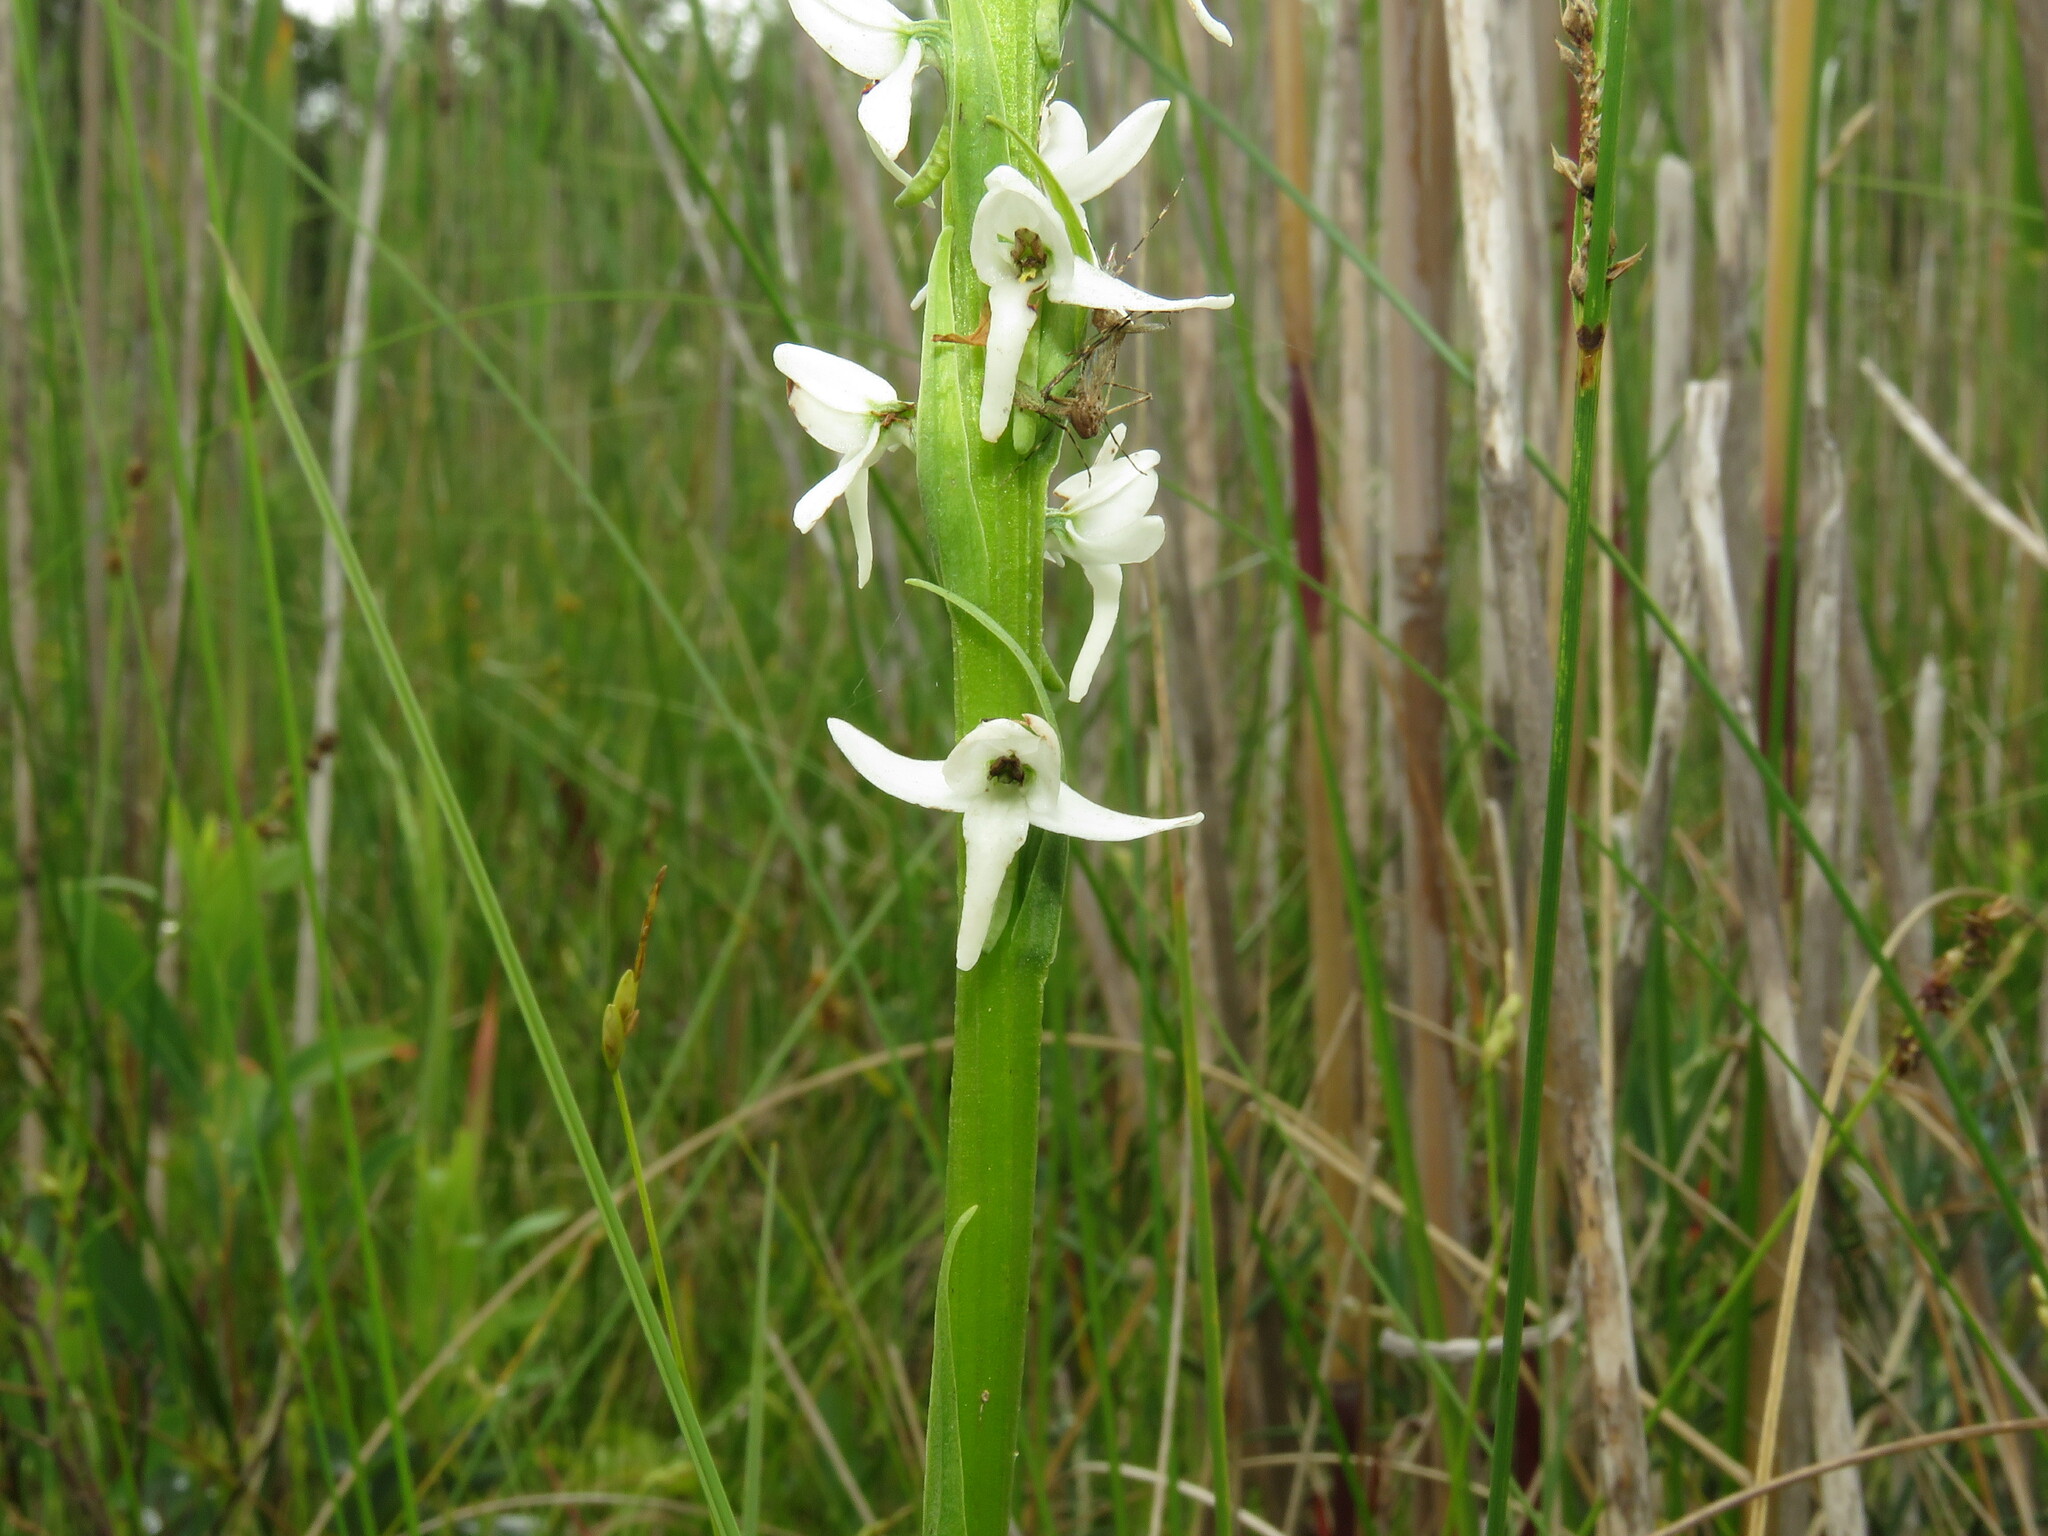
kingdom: Plantae
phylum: Tracheophyta
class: Liliopsida
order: Asparagales
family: Orchidaceae
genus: Platanthera
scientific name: Platanthera dilatata
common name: Bog candles
